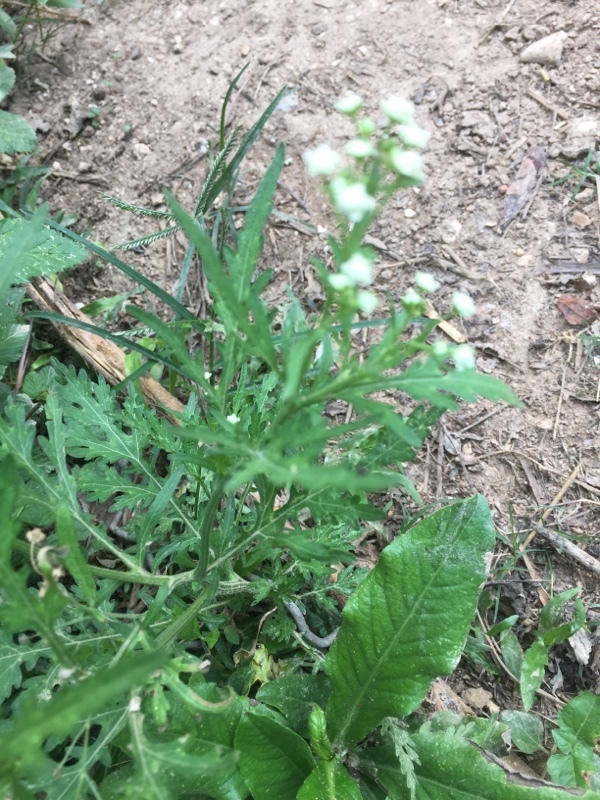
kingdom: Plantae
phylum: Tracheophyta
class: Magnoliopsida
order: Asterales
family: Asteraceae
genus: Parthenium
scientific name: Parthenium hysterophorus
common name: Santa maria feverfew
